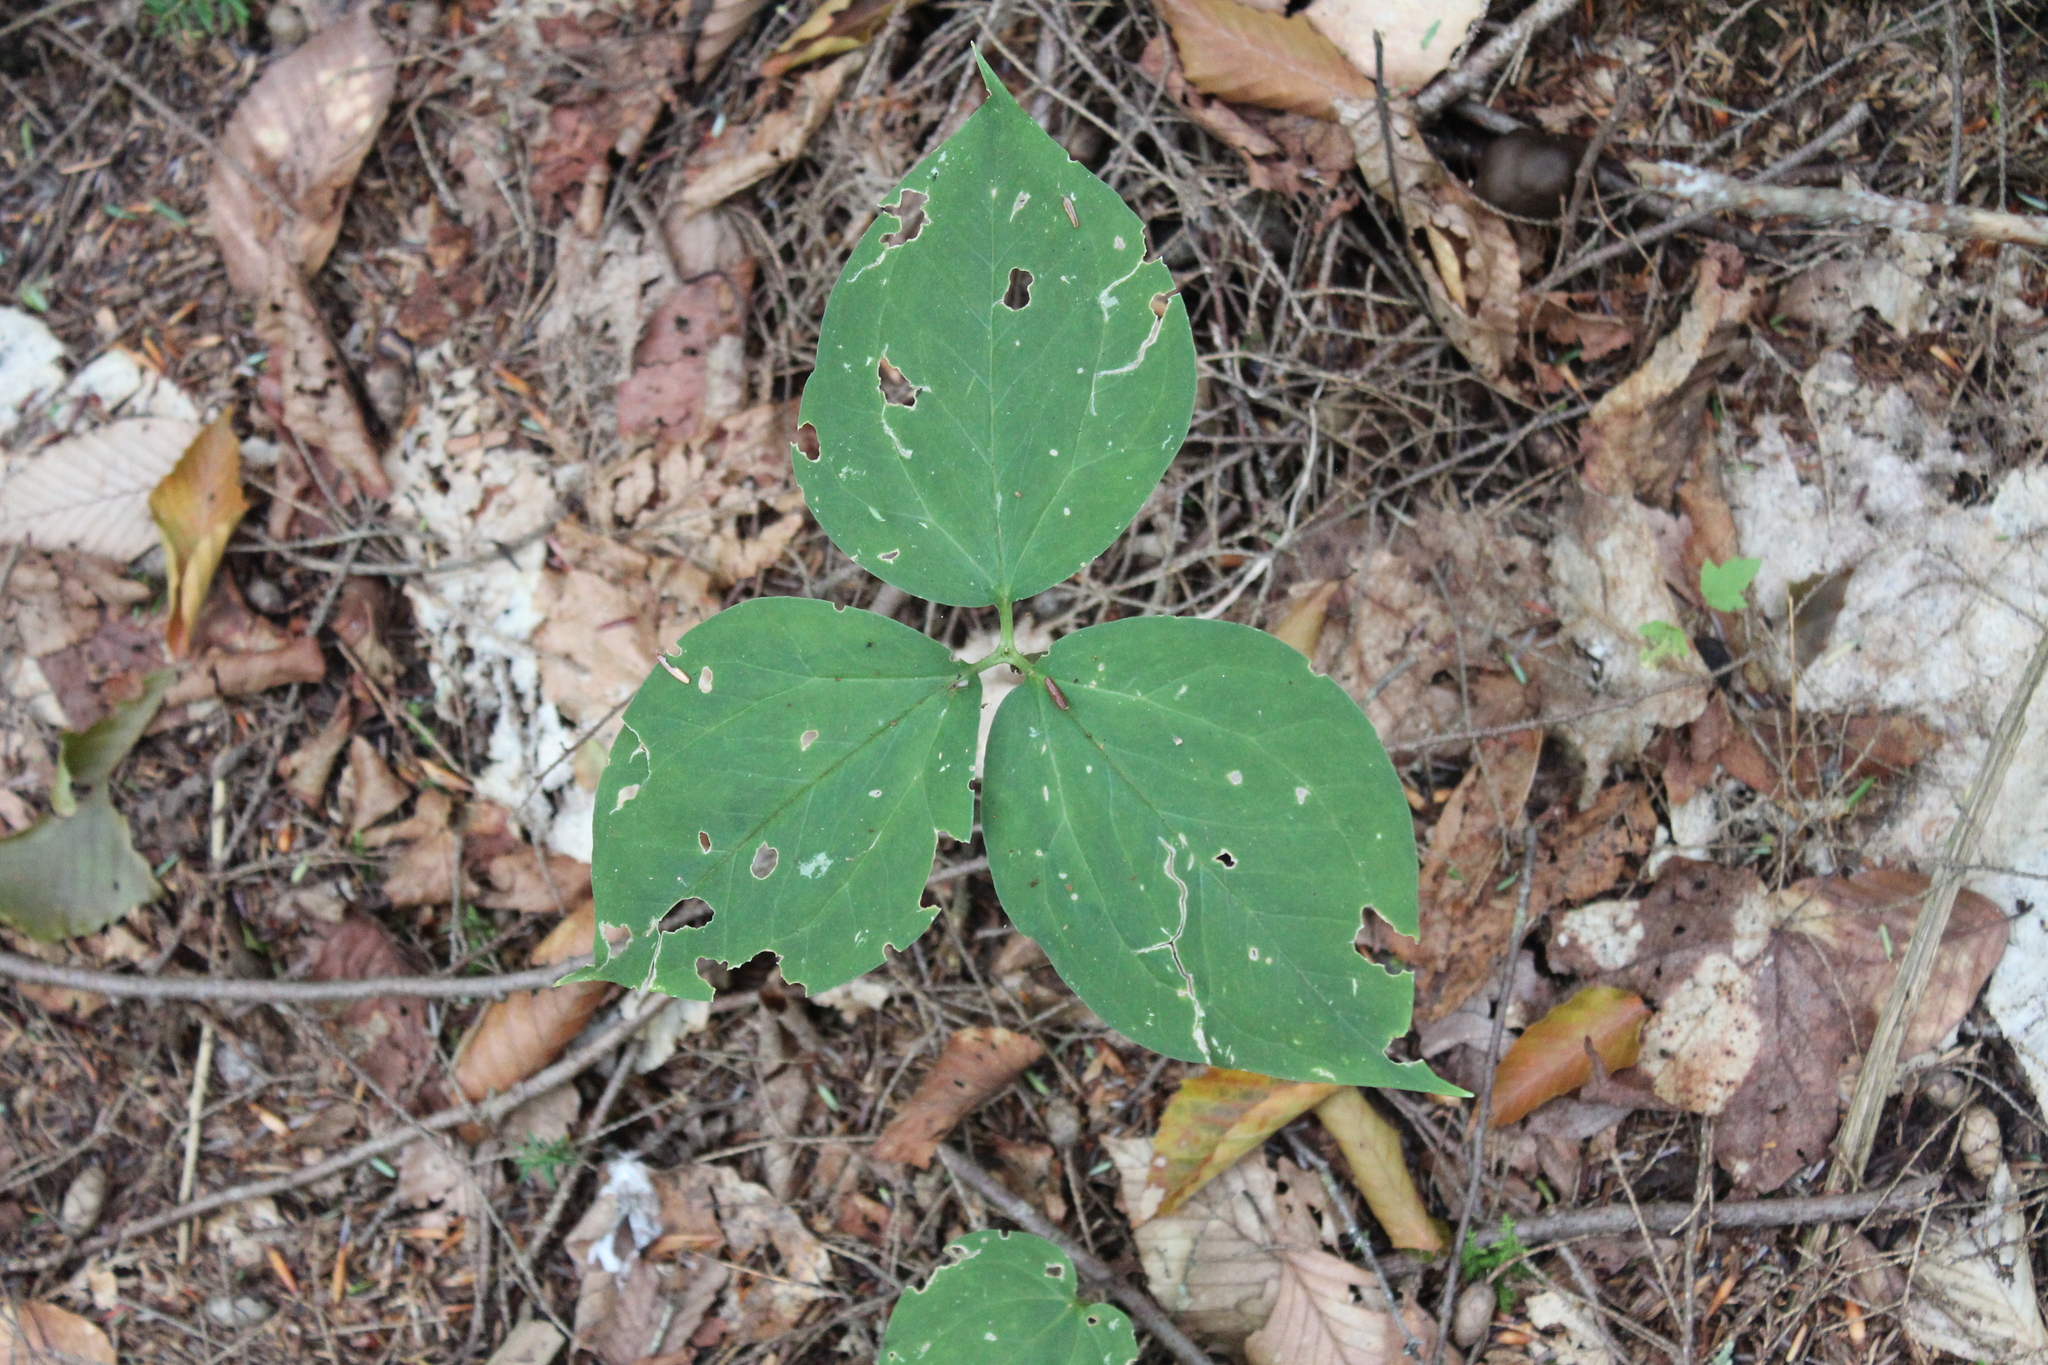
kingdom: Plantae
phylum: Tracheophyta
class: Liliopsida
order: Liliales
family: Melanthiaceae
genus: Trillium
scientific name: Trillium undulatum
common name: Paint trillium
